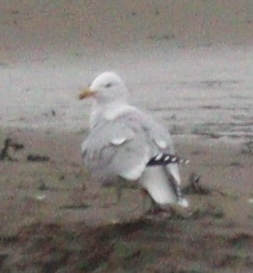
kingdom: Animalia
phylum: Chordata
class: Aves
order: Charadriiformes
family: Laridae
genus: Larus
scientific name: Larus argentatus
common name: Herring gull
